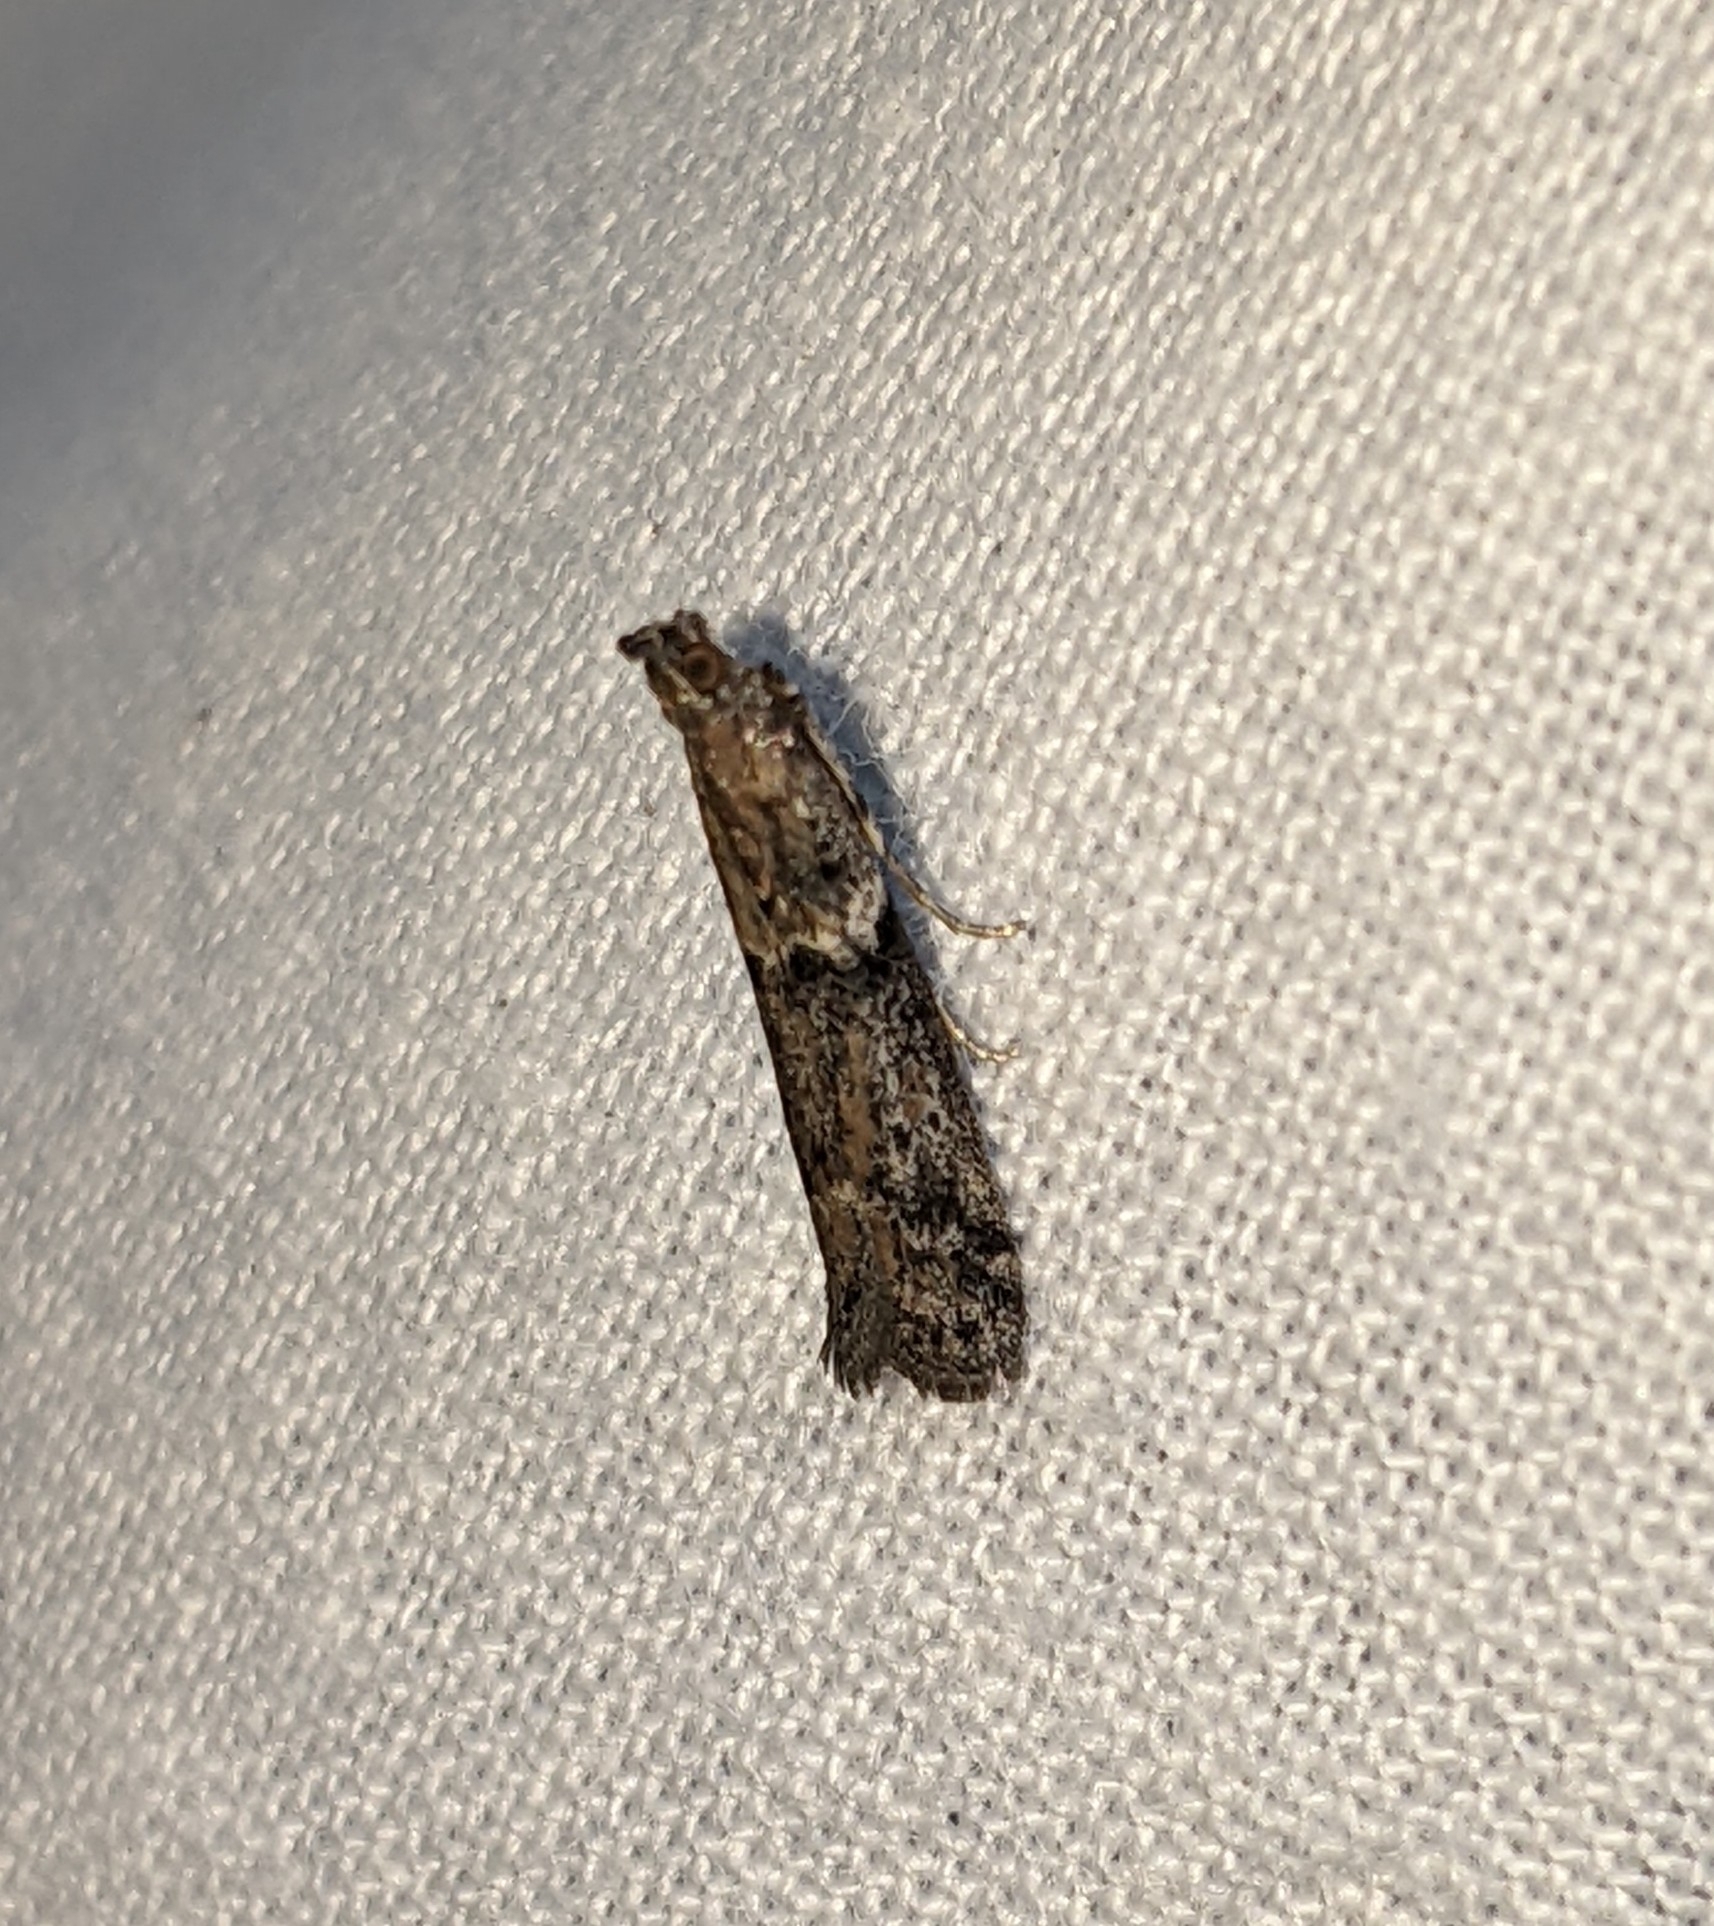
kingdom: Animalia
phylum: Arthropoda
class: Insecta
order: Lepidoptera
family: Pyralidae
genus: Ephestiodes
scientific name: Ephestiodes gilvescentella
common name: Moth
